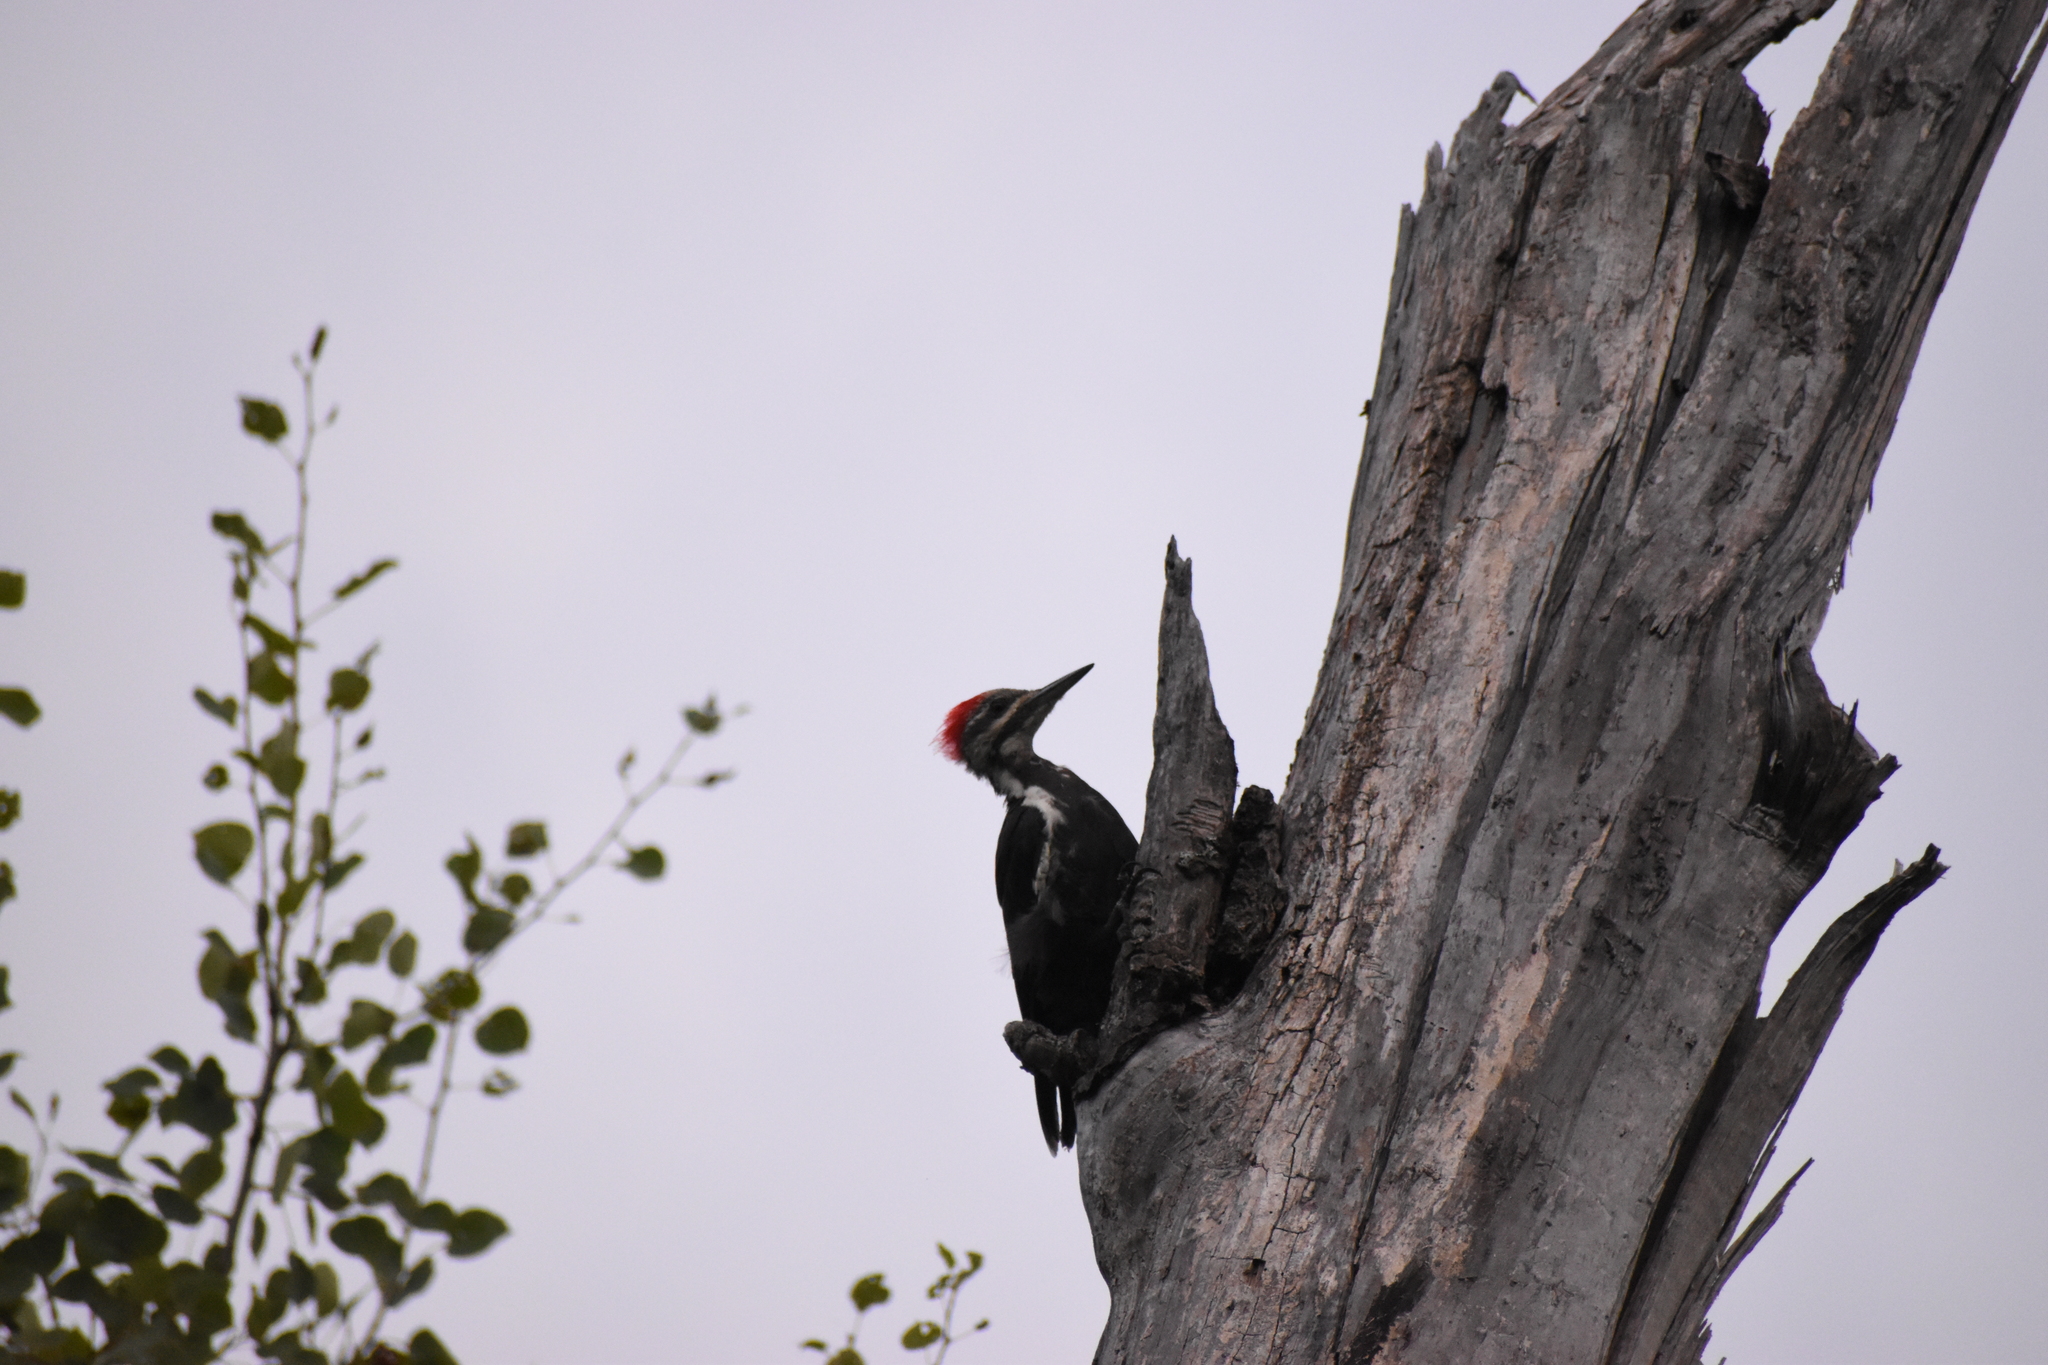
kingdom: Animalia
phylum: Chordata
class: Aves
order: Piciformes
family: Picidae
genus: Dryocopus
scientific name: Dryocopus pileatus
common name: Pileated woodpecker
